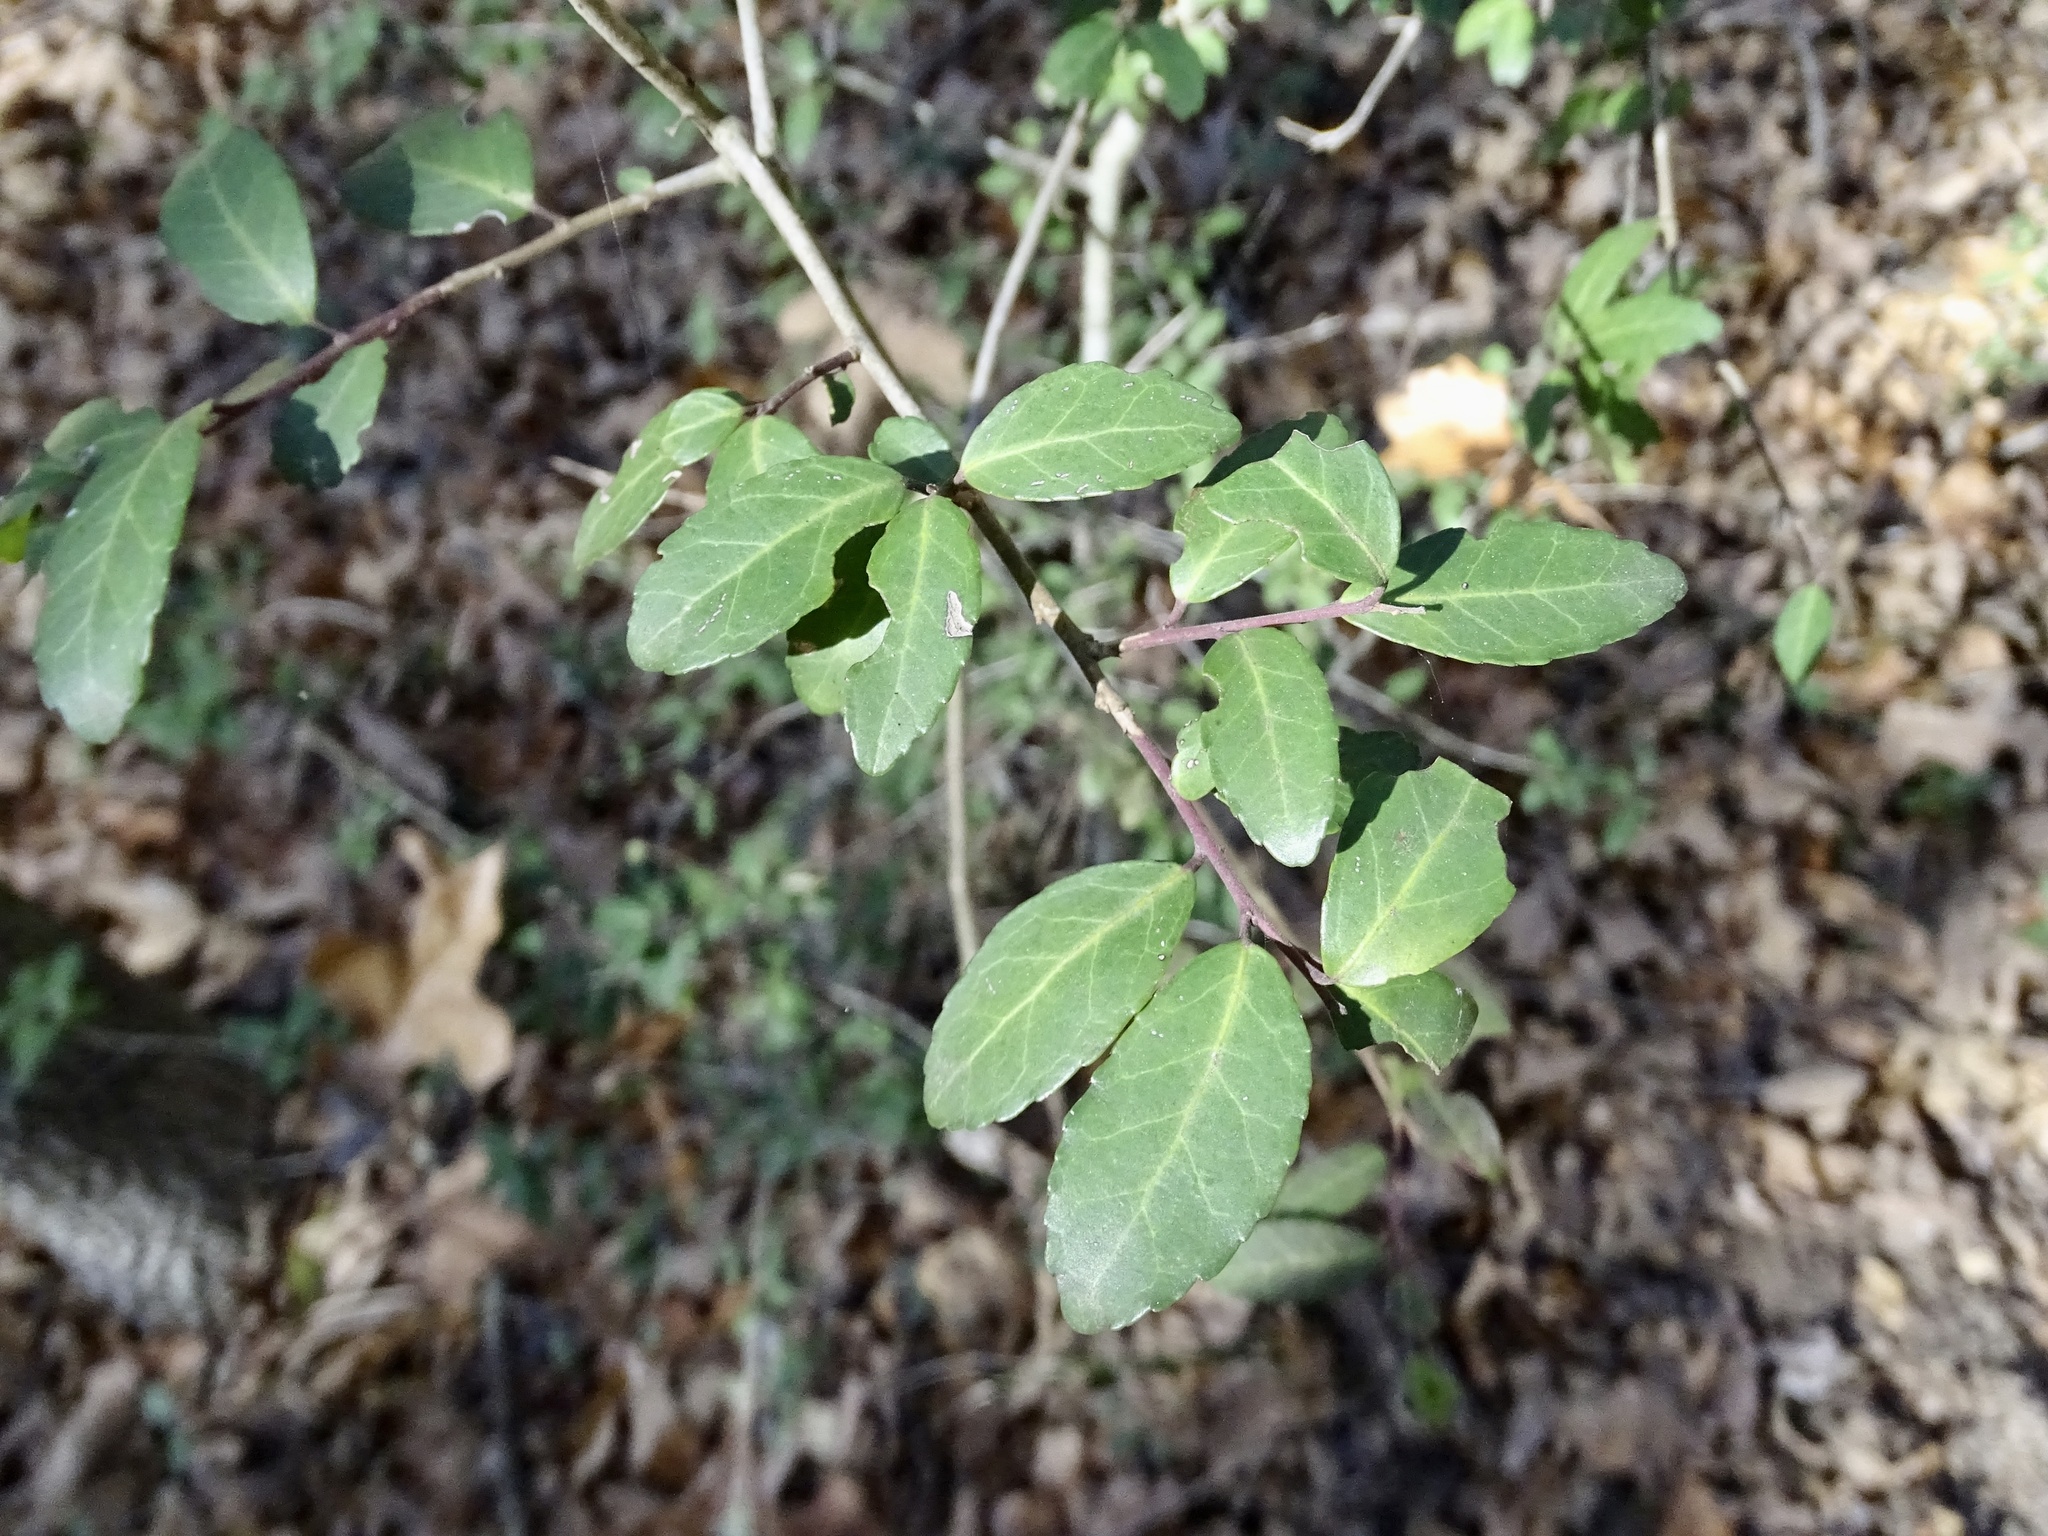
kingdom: Plantae
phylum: Tracheophyta
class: Magnoliopsida
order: Aquifoliales
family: Aquifoliaceae
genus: Ilex
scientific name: Ilex vomitoria
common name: Yaupon holly
